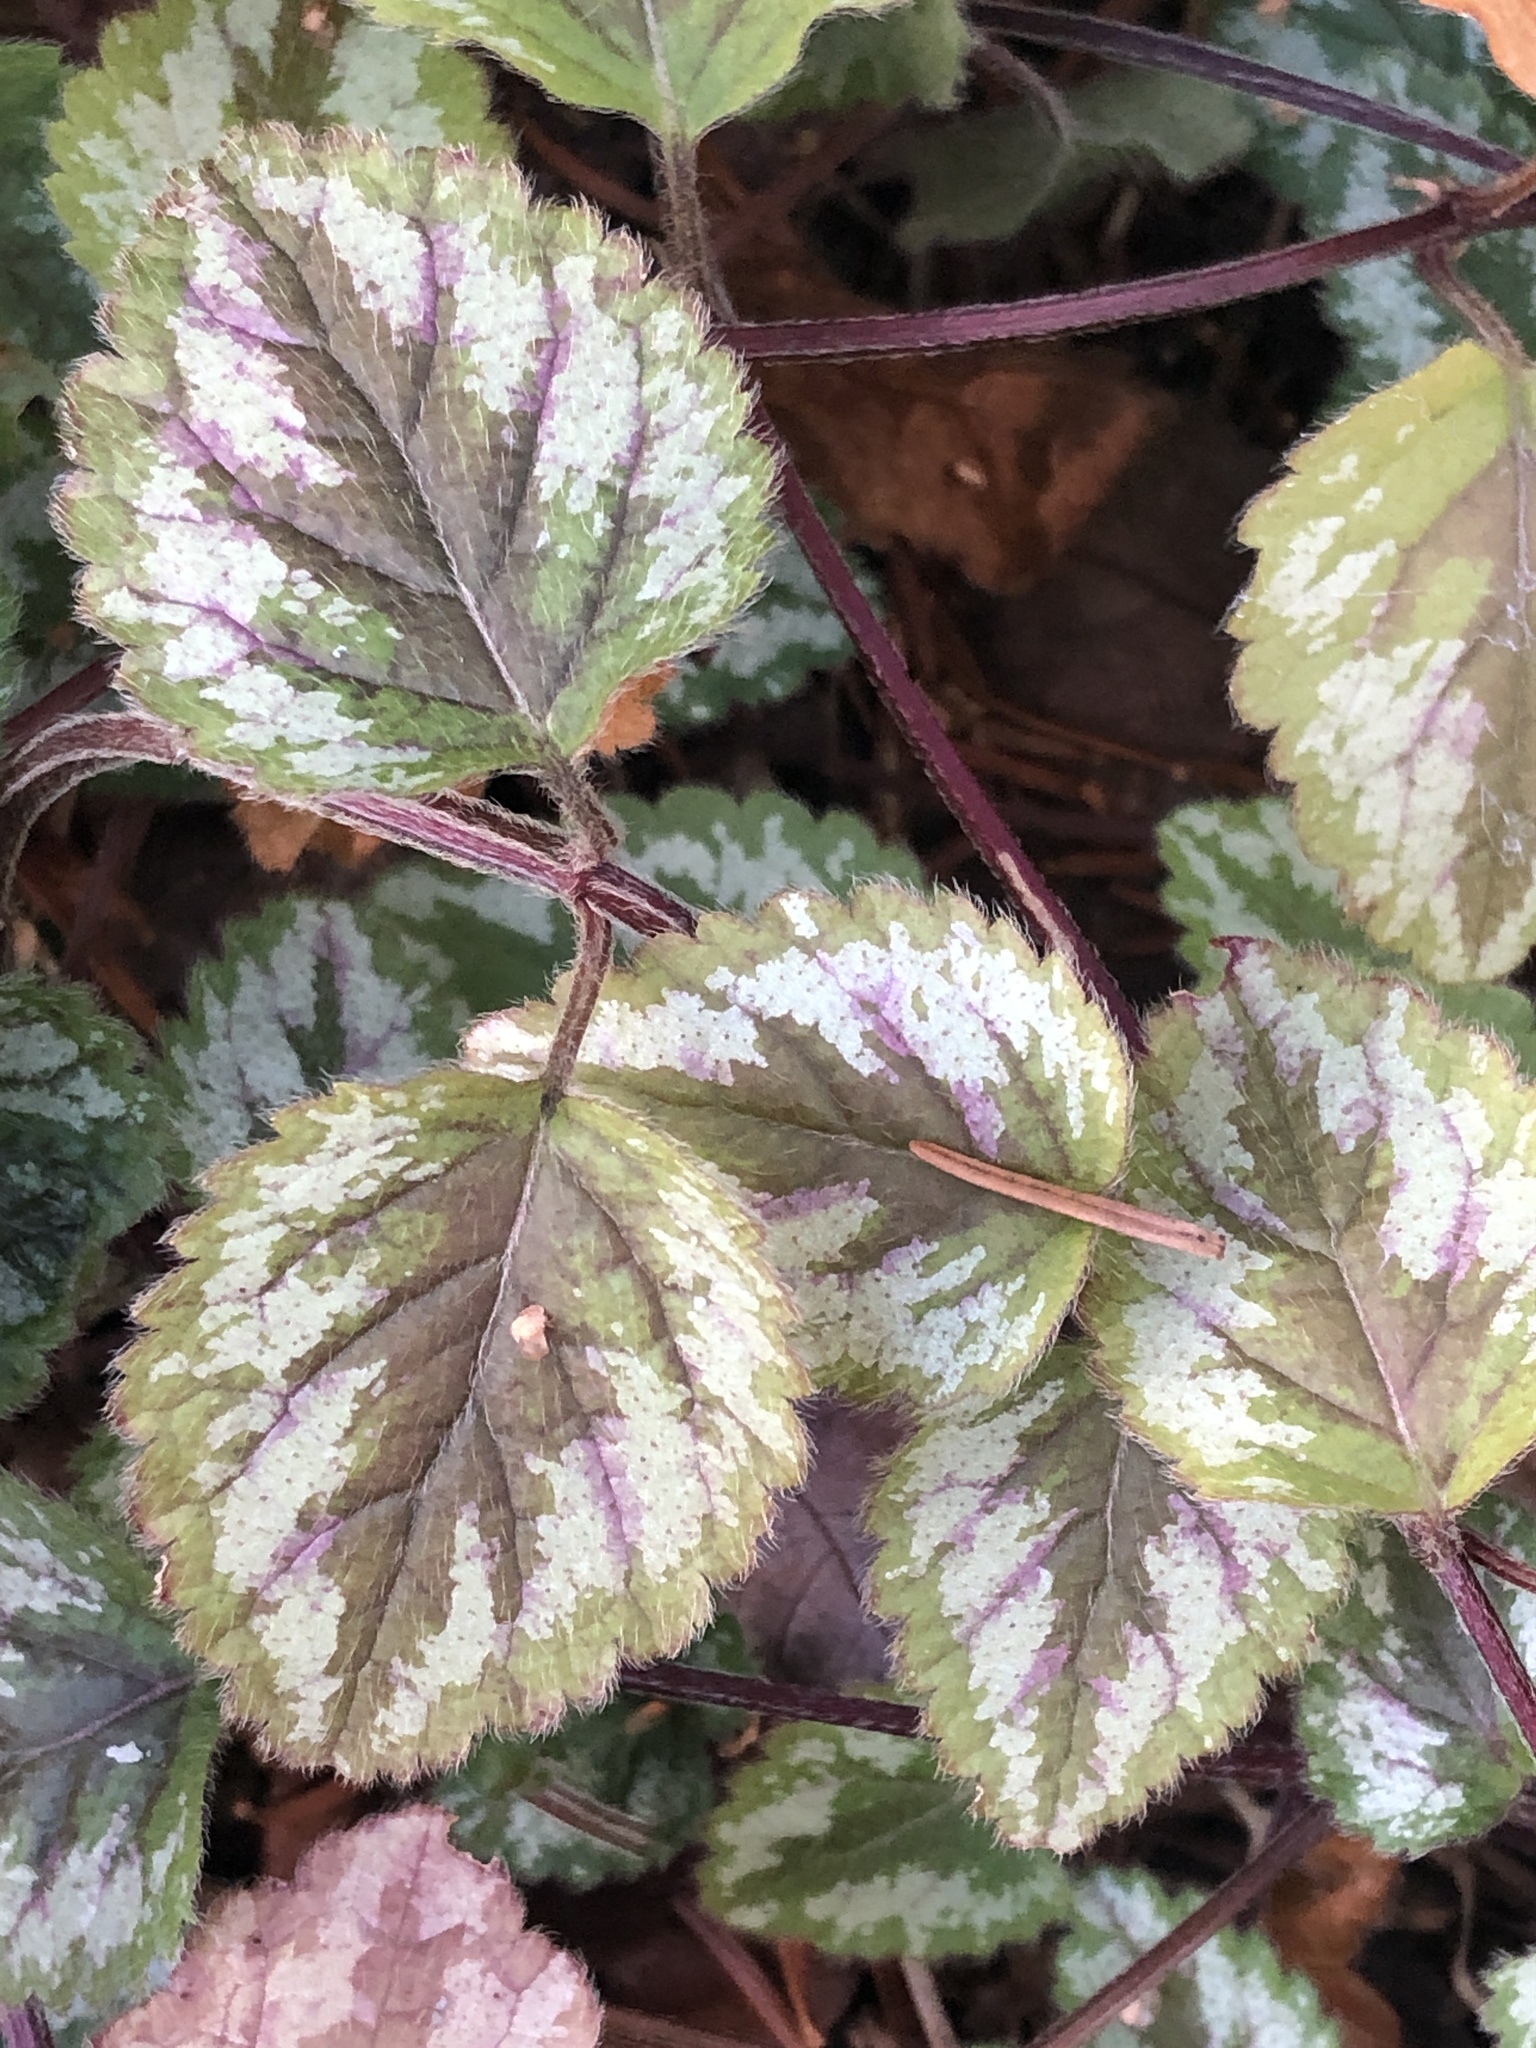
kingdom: Plantae
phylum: Tracheophyta
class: Magnoliopsida
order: Lamiales
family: Lamiaceae
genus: Lamium
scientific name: Lamium galeobdolon
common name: Yellow archangel
